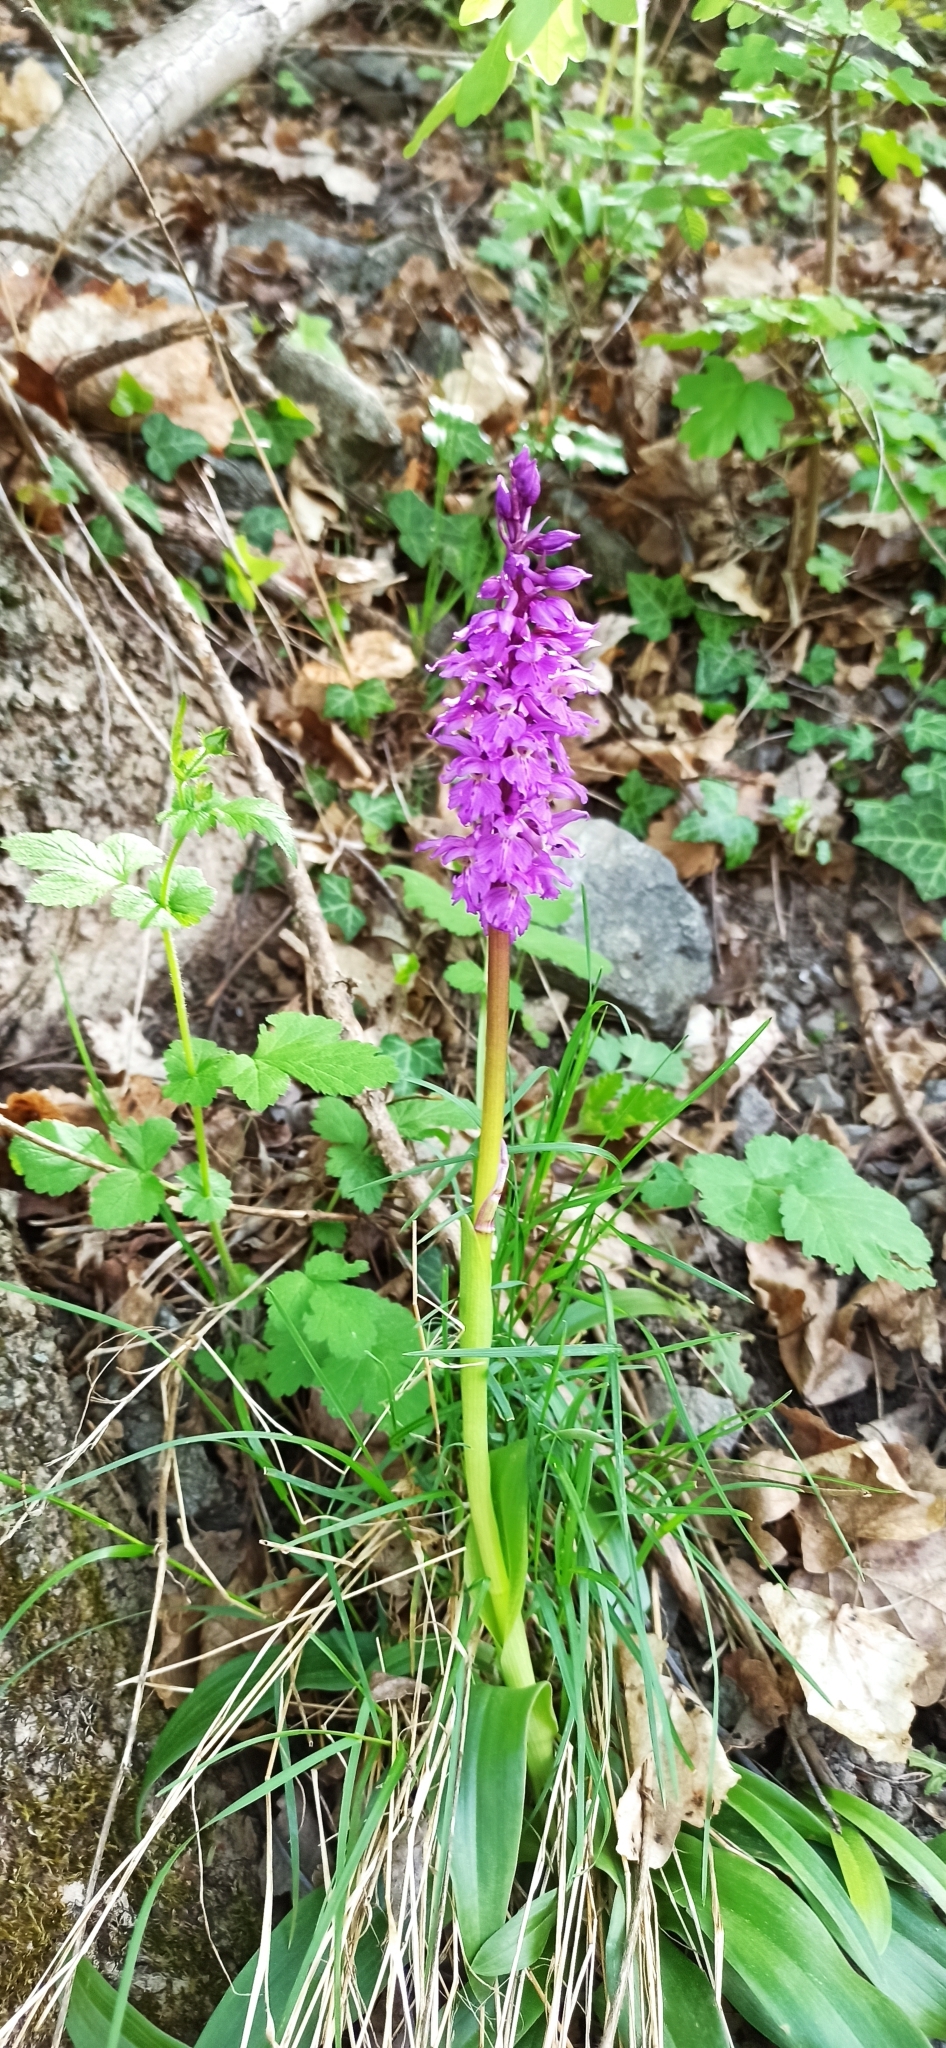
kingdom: Plantae
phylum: Tracheophyta
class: Liliopsida
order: Asparagales
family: Orchidaceae
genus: Orchis
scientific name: Orchis mascula
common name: Early-purple orchid
